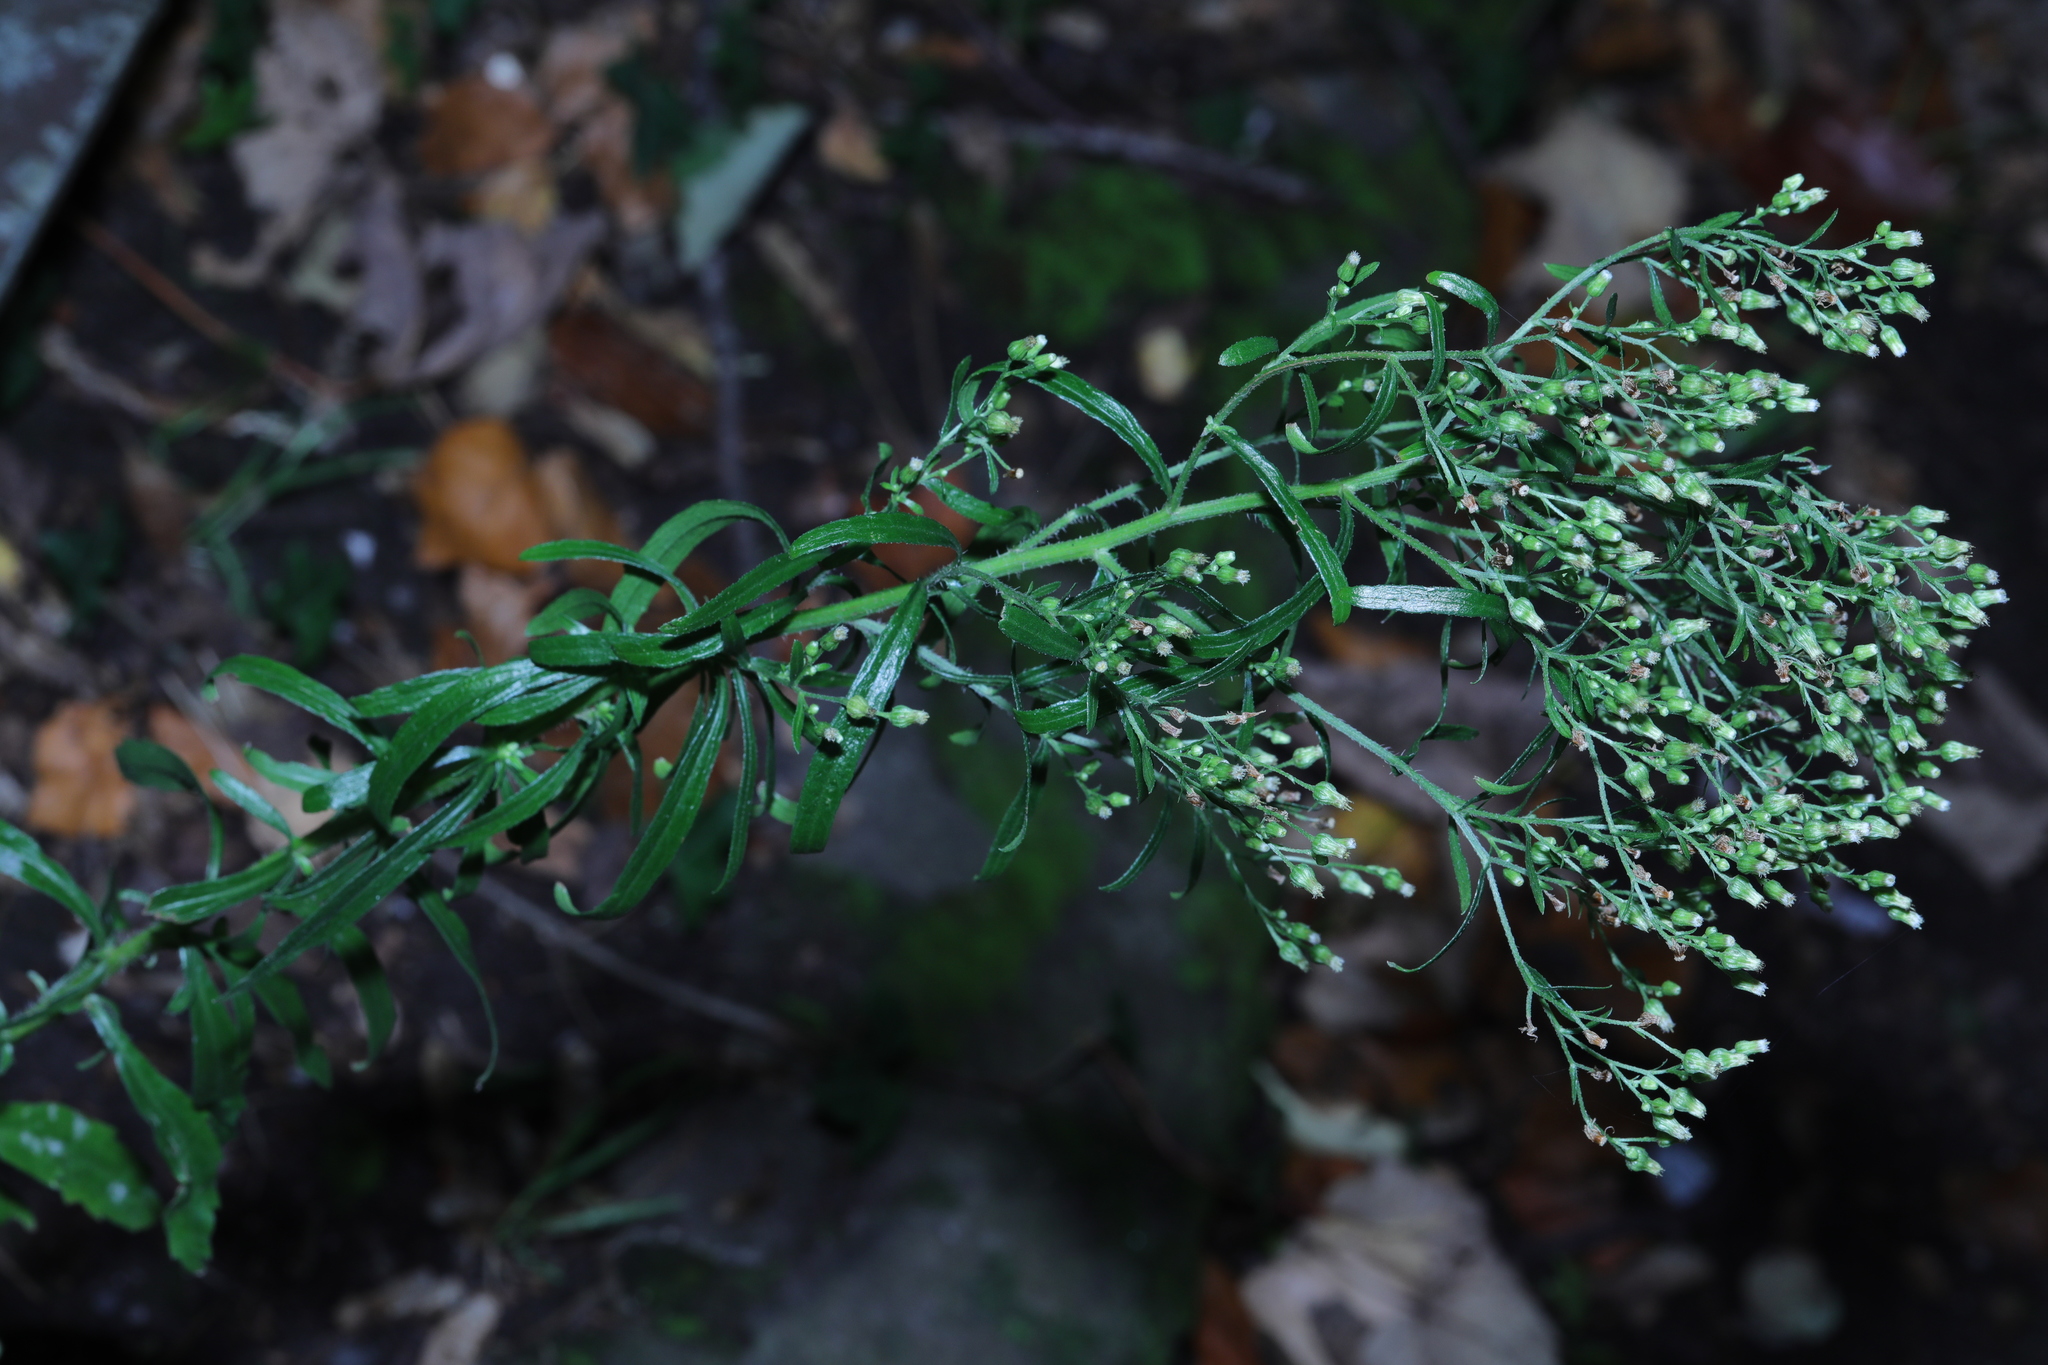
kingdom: Plantae
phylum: Tracheophyta
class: Magnoliopsida
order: Asterales
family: Asteraceae
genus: Erigeron
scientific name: Erigeron canadensis
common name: Canadian fleabane
